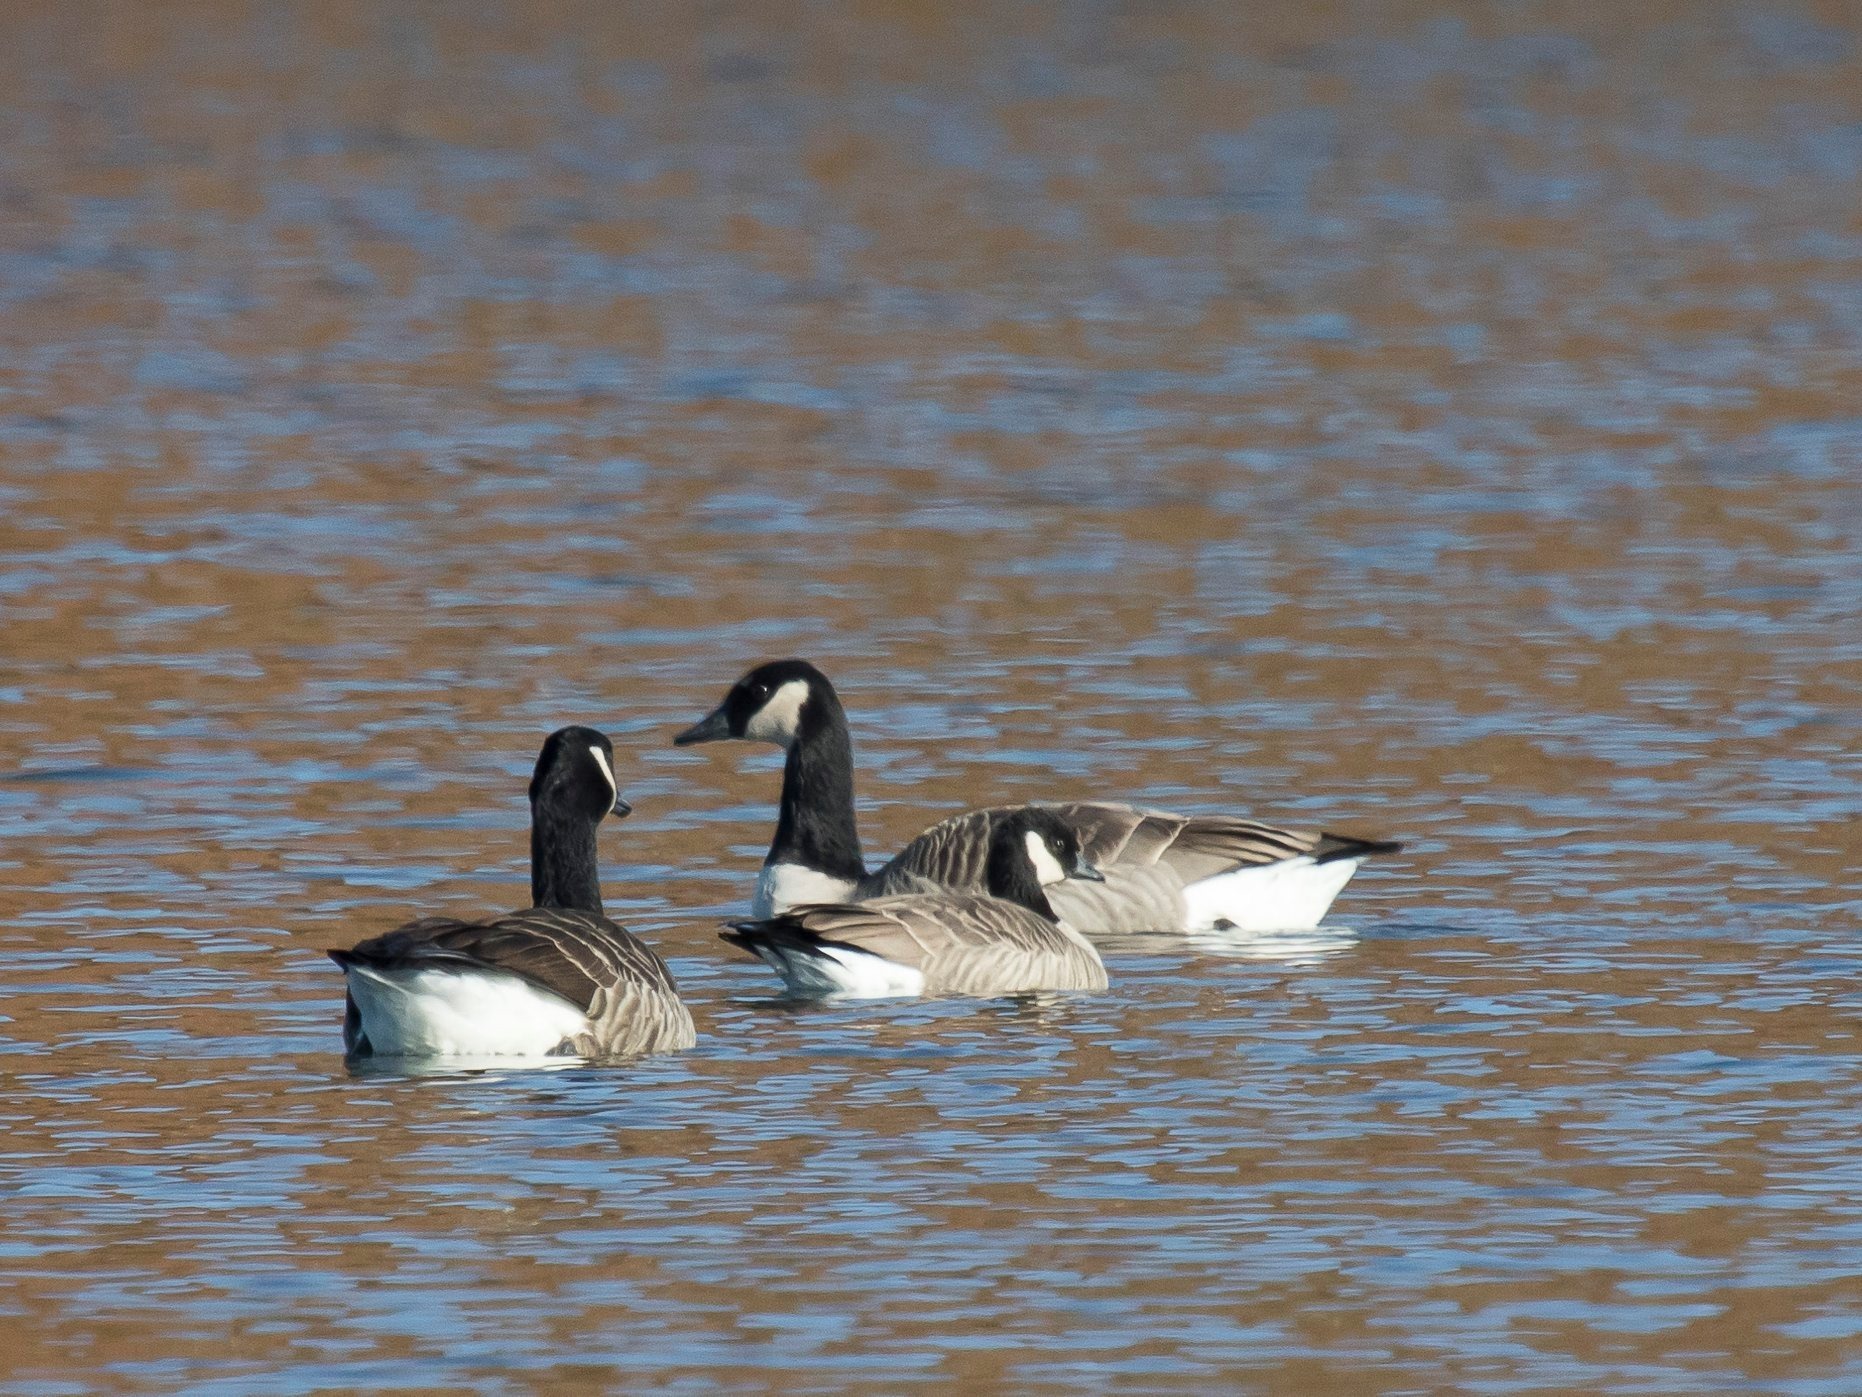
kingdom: Animalia
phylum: Chordata
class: Aves
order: Anseriformes
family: Anatidae
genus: Branta
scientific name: Branta hutchinsii
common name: Cackling goose
